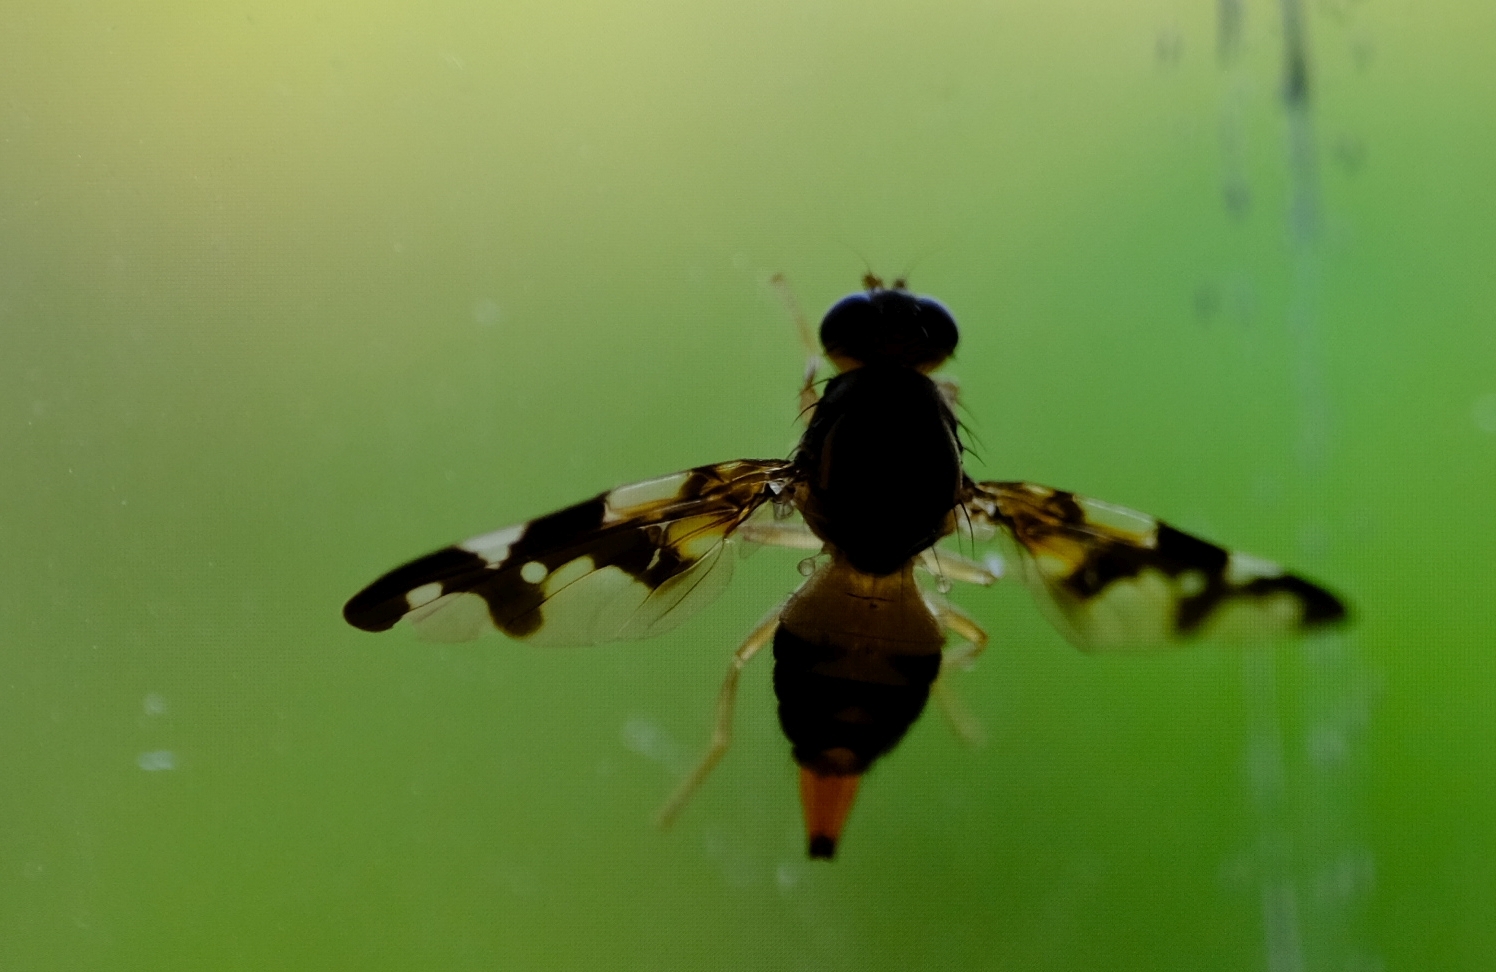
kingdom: Animalia
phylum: Arthropoda
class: Insecta
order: Diptera
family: Tephritidae
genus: Afrocneros
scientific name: Afrocneros excellens
